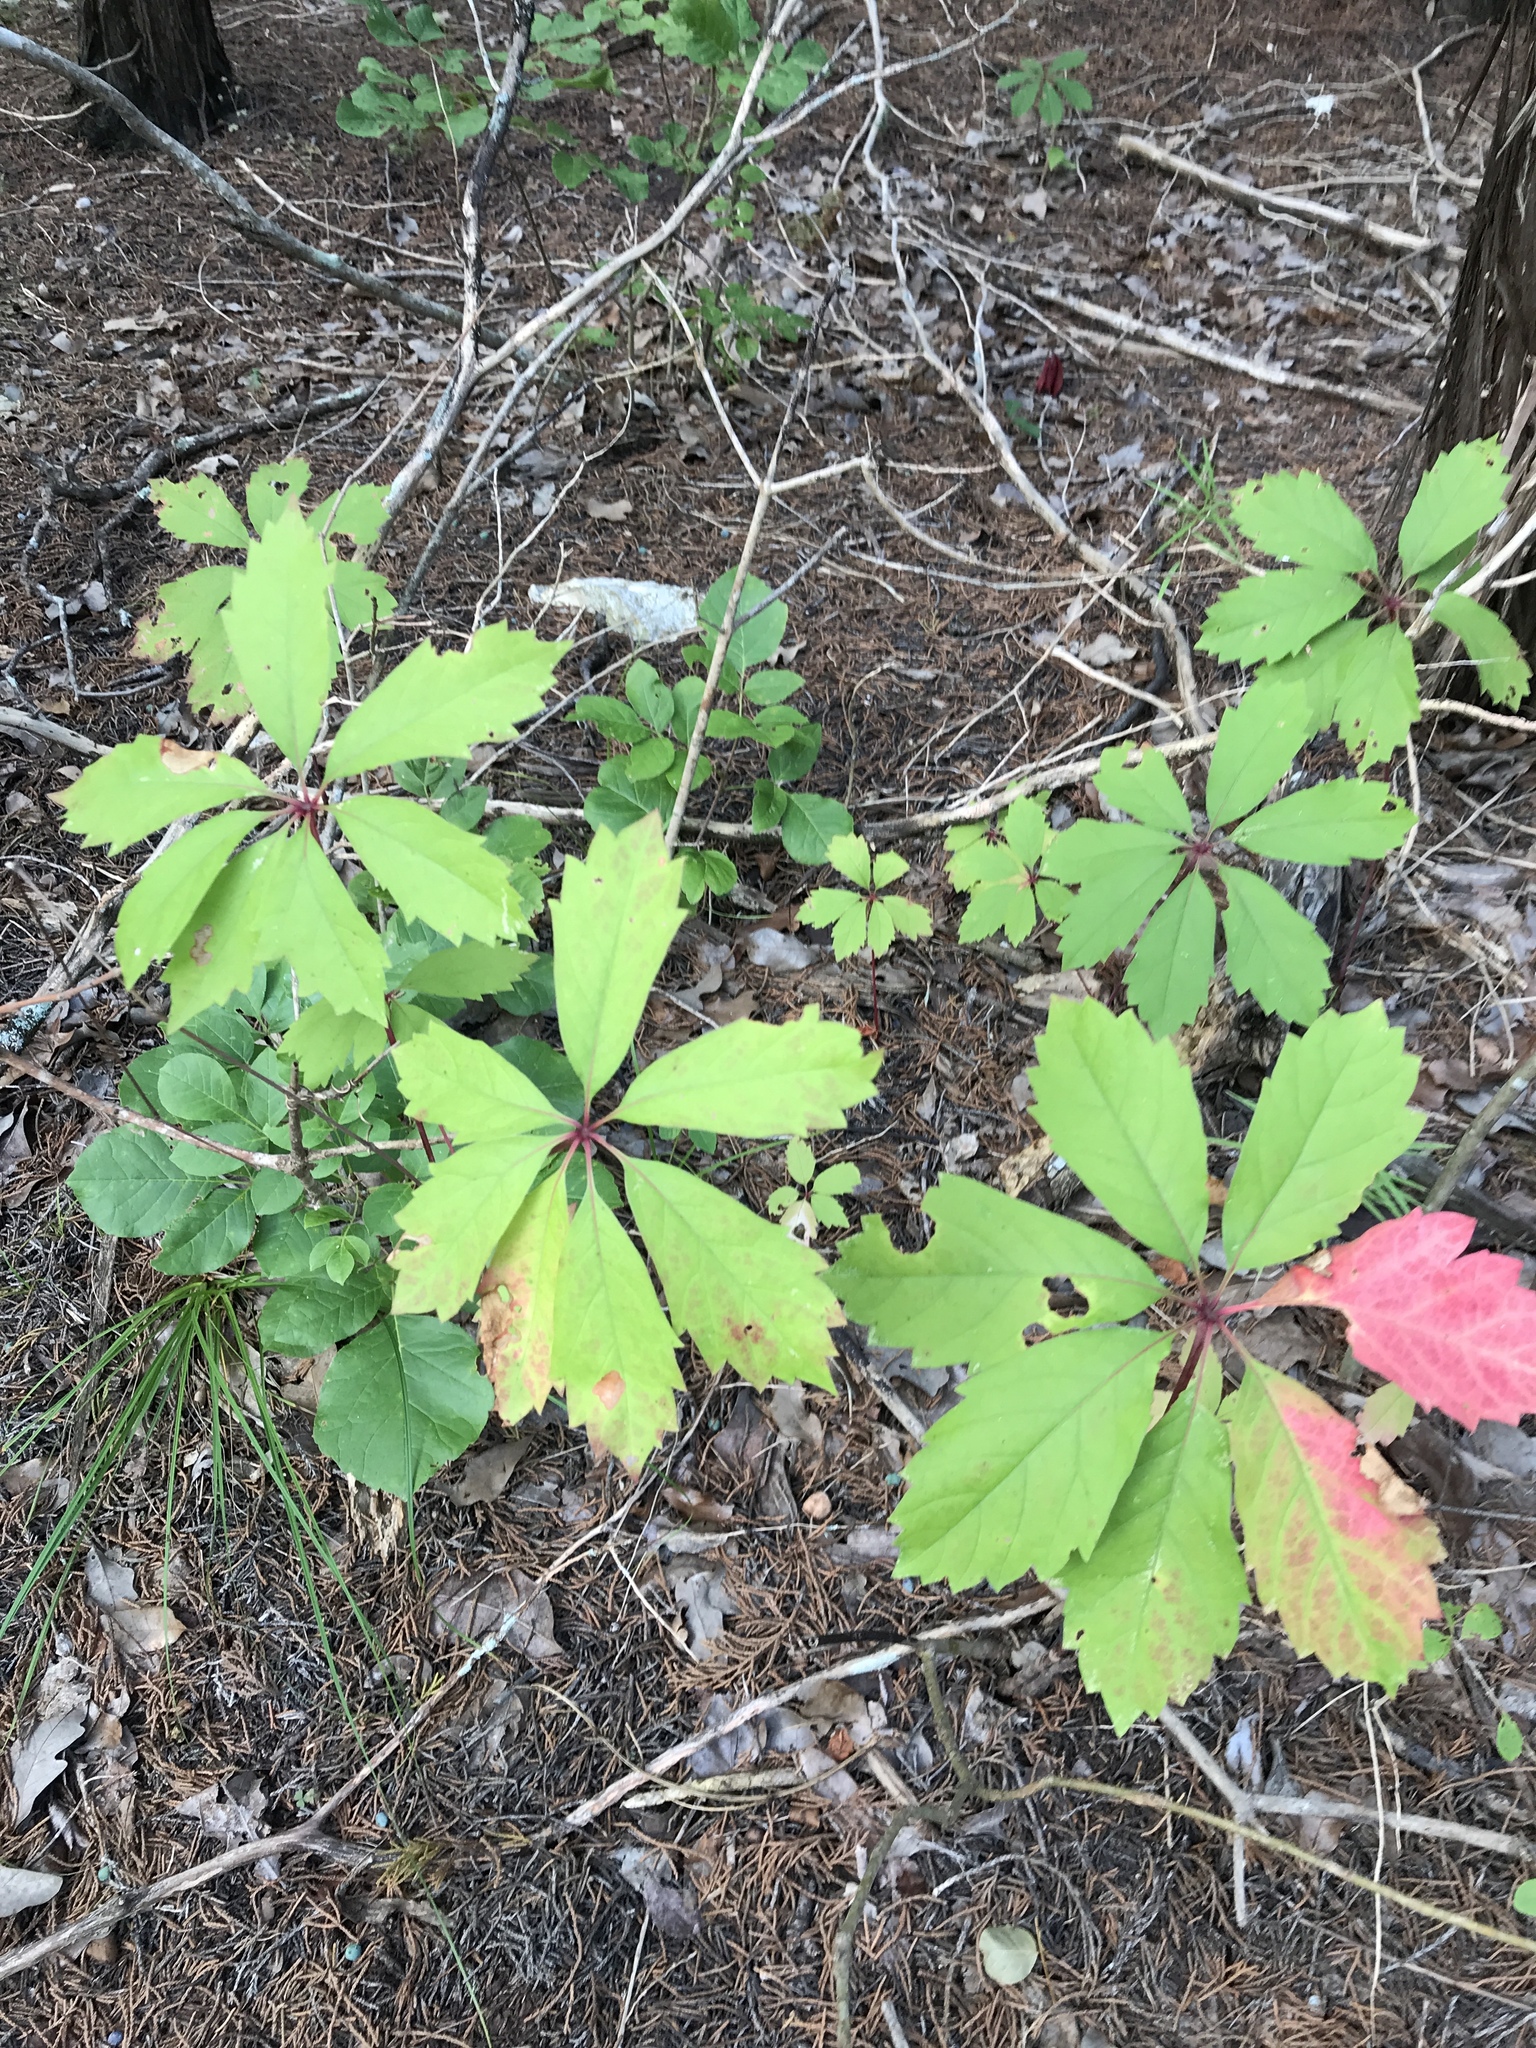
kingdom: Plantae
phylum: Tracheophyta
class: Magnoliopsida
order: Vitales
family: Vitaceae
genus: Parthenocissus
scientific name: Parthenocissus heptaphylla
